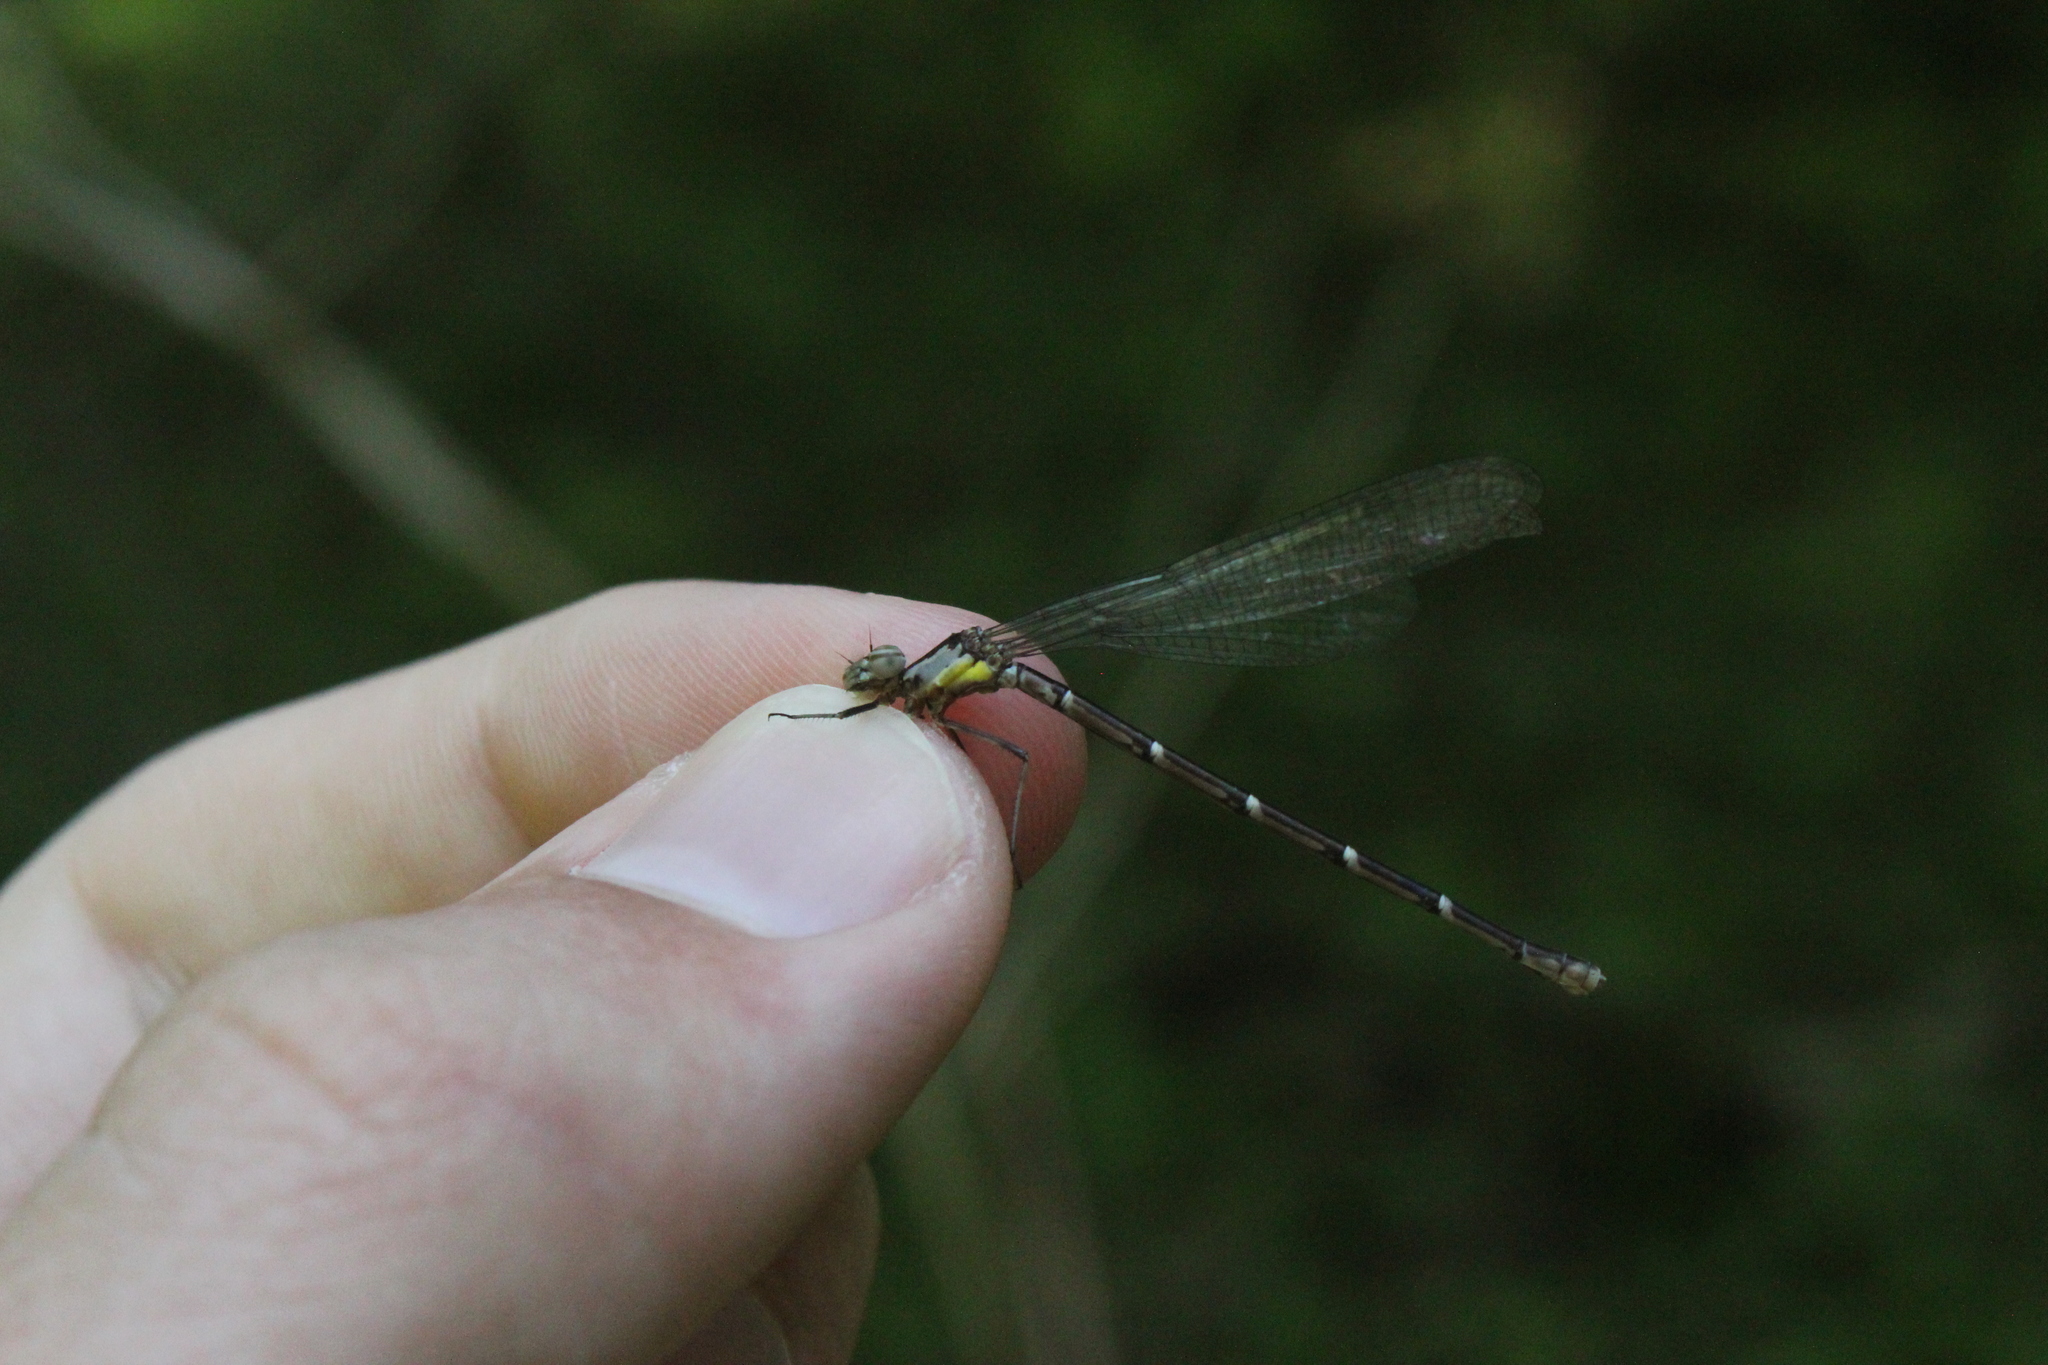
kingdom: Animalia
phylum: Arthropoda
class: Insecta
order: Odonata
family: Coenagrionidae
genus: Chromagrion
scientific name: Chromagrion conditum
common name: Aurora damsel
